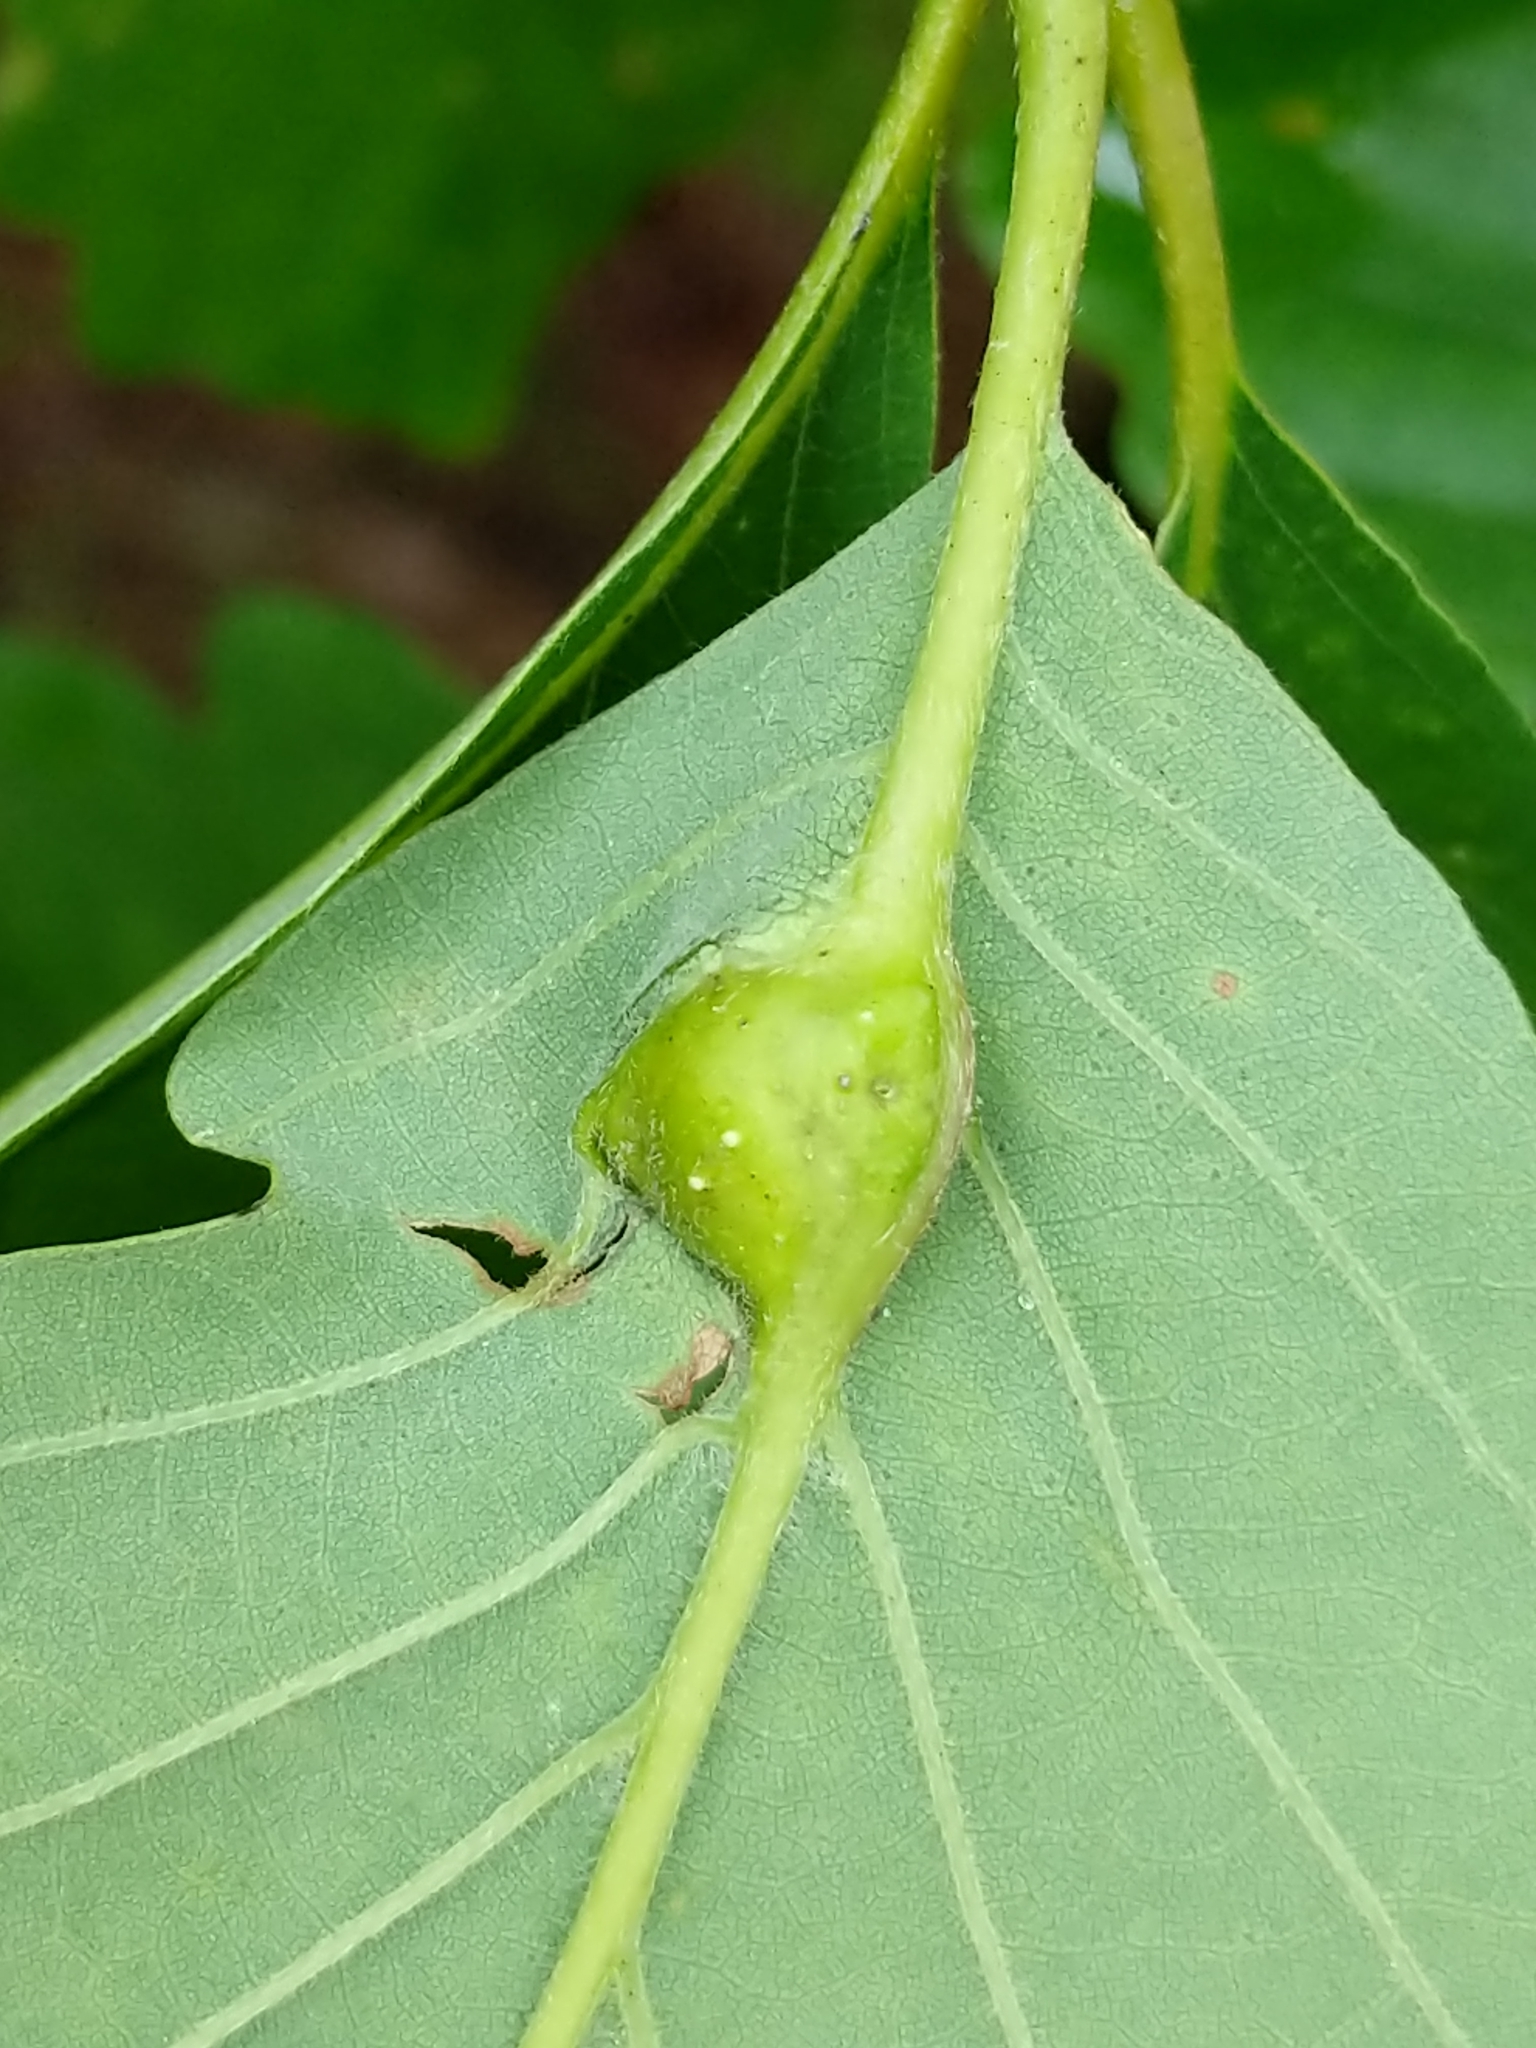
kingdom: Animalia
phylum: Arthropoda
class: Insecta
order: Hymenoptera
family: Cynipidae
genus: Andricus
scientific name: Andricus
